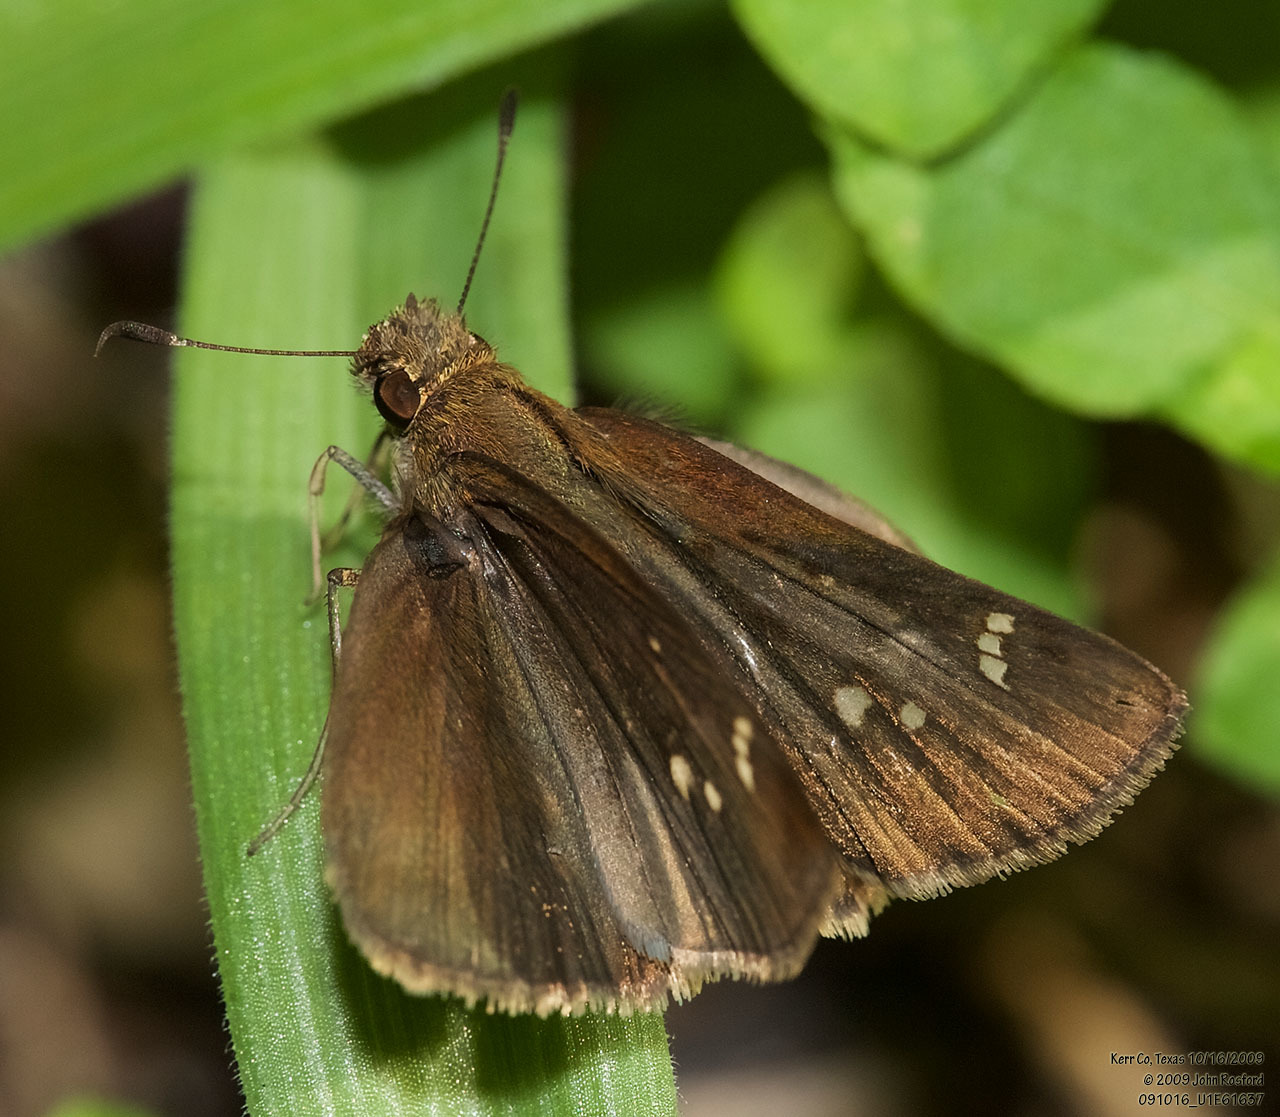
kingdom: Animalia
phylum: Arthropoda
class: Insecta
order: Lepidoptera
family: Hesperiidae
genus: Lerema
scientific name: Lerema accius
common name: Clouded skipper
